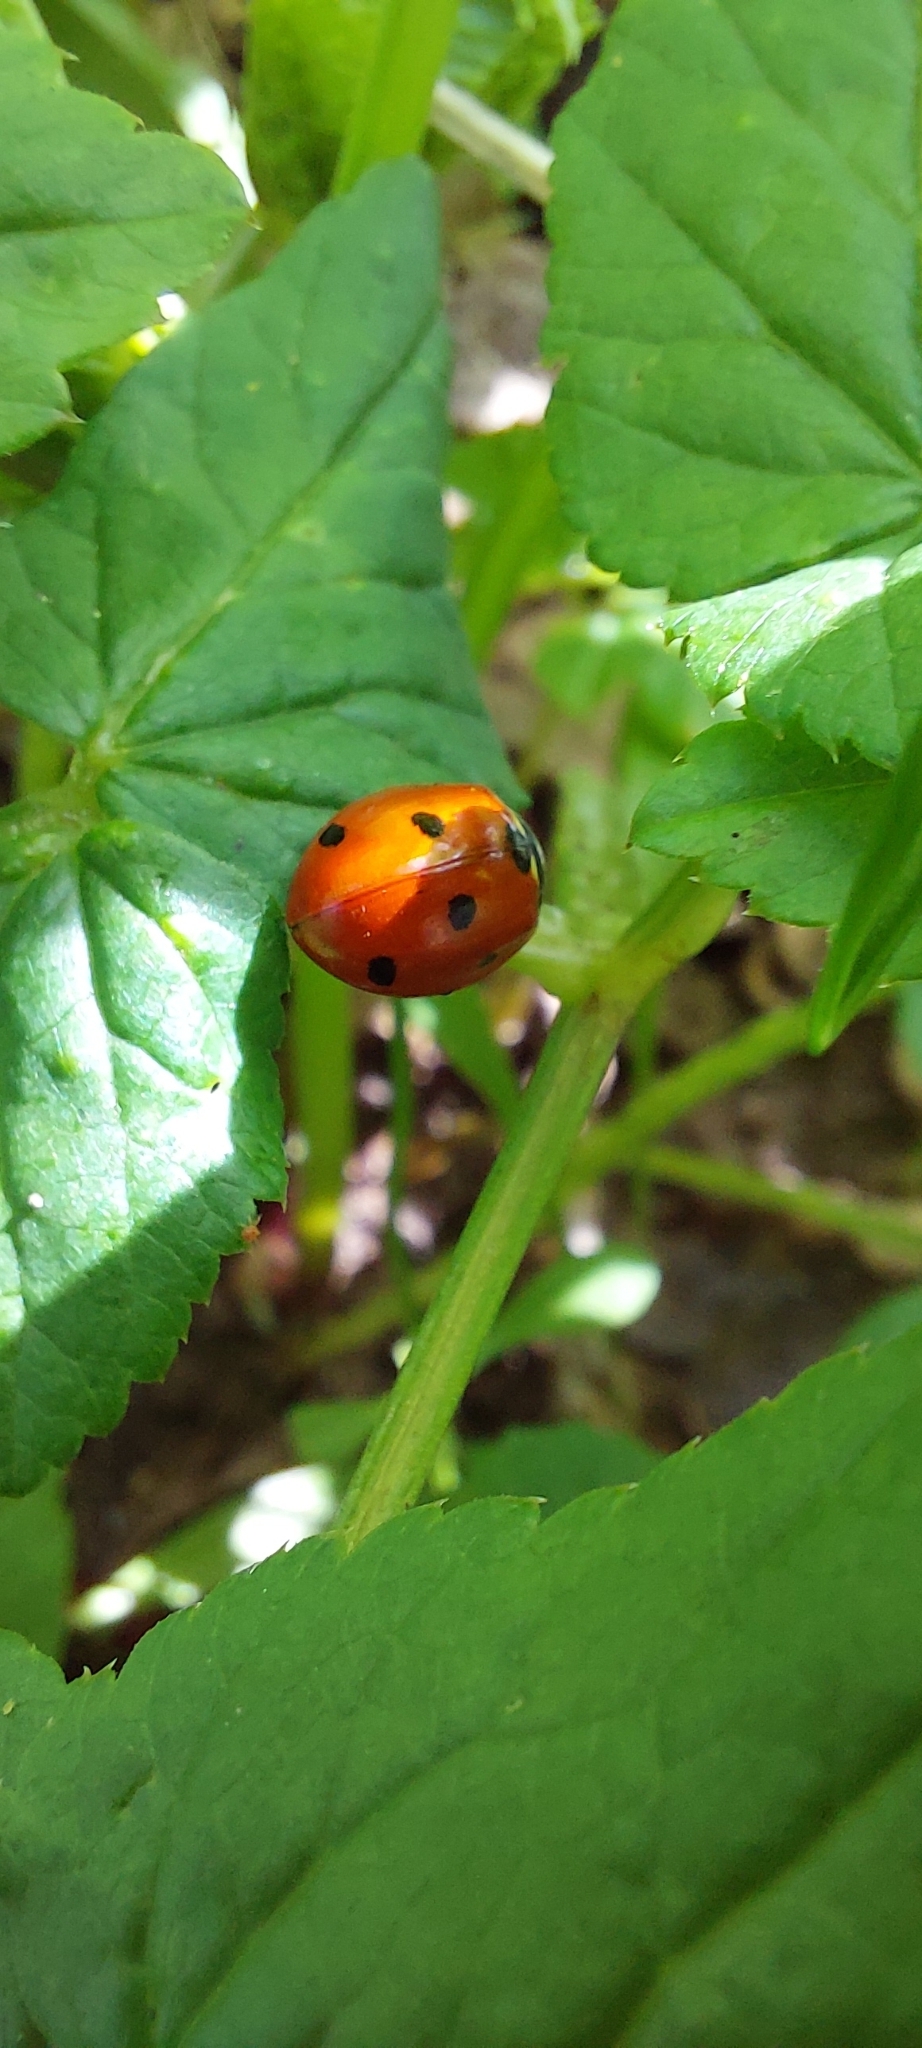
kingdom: Animalia
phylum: Arthropoda
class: Insecta
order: Coleoptera
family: Coccinellidae
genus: Coccinella
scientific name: Coccinella septempunctata
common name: Sevenspotted lady beetle
